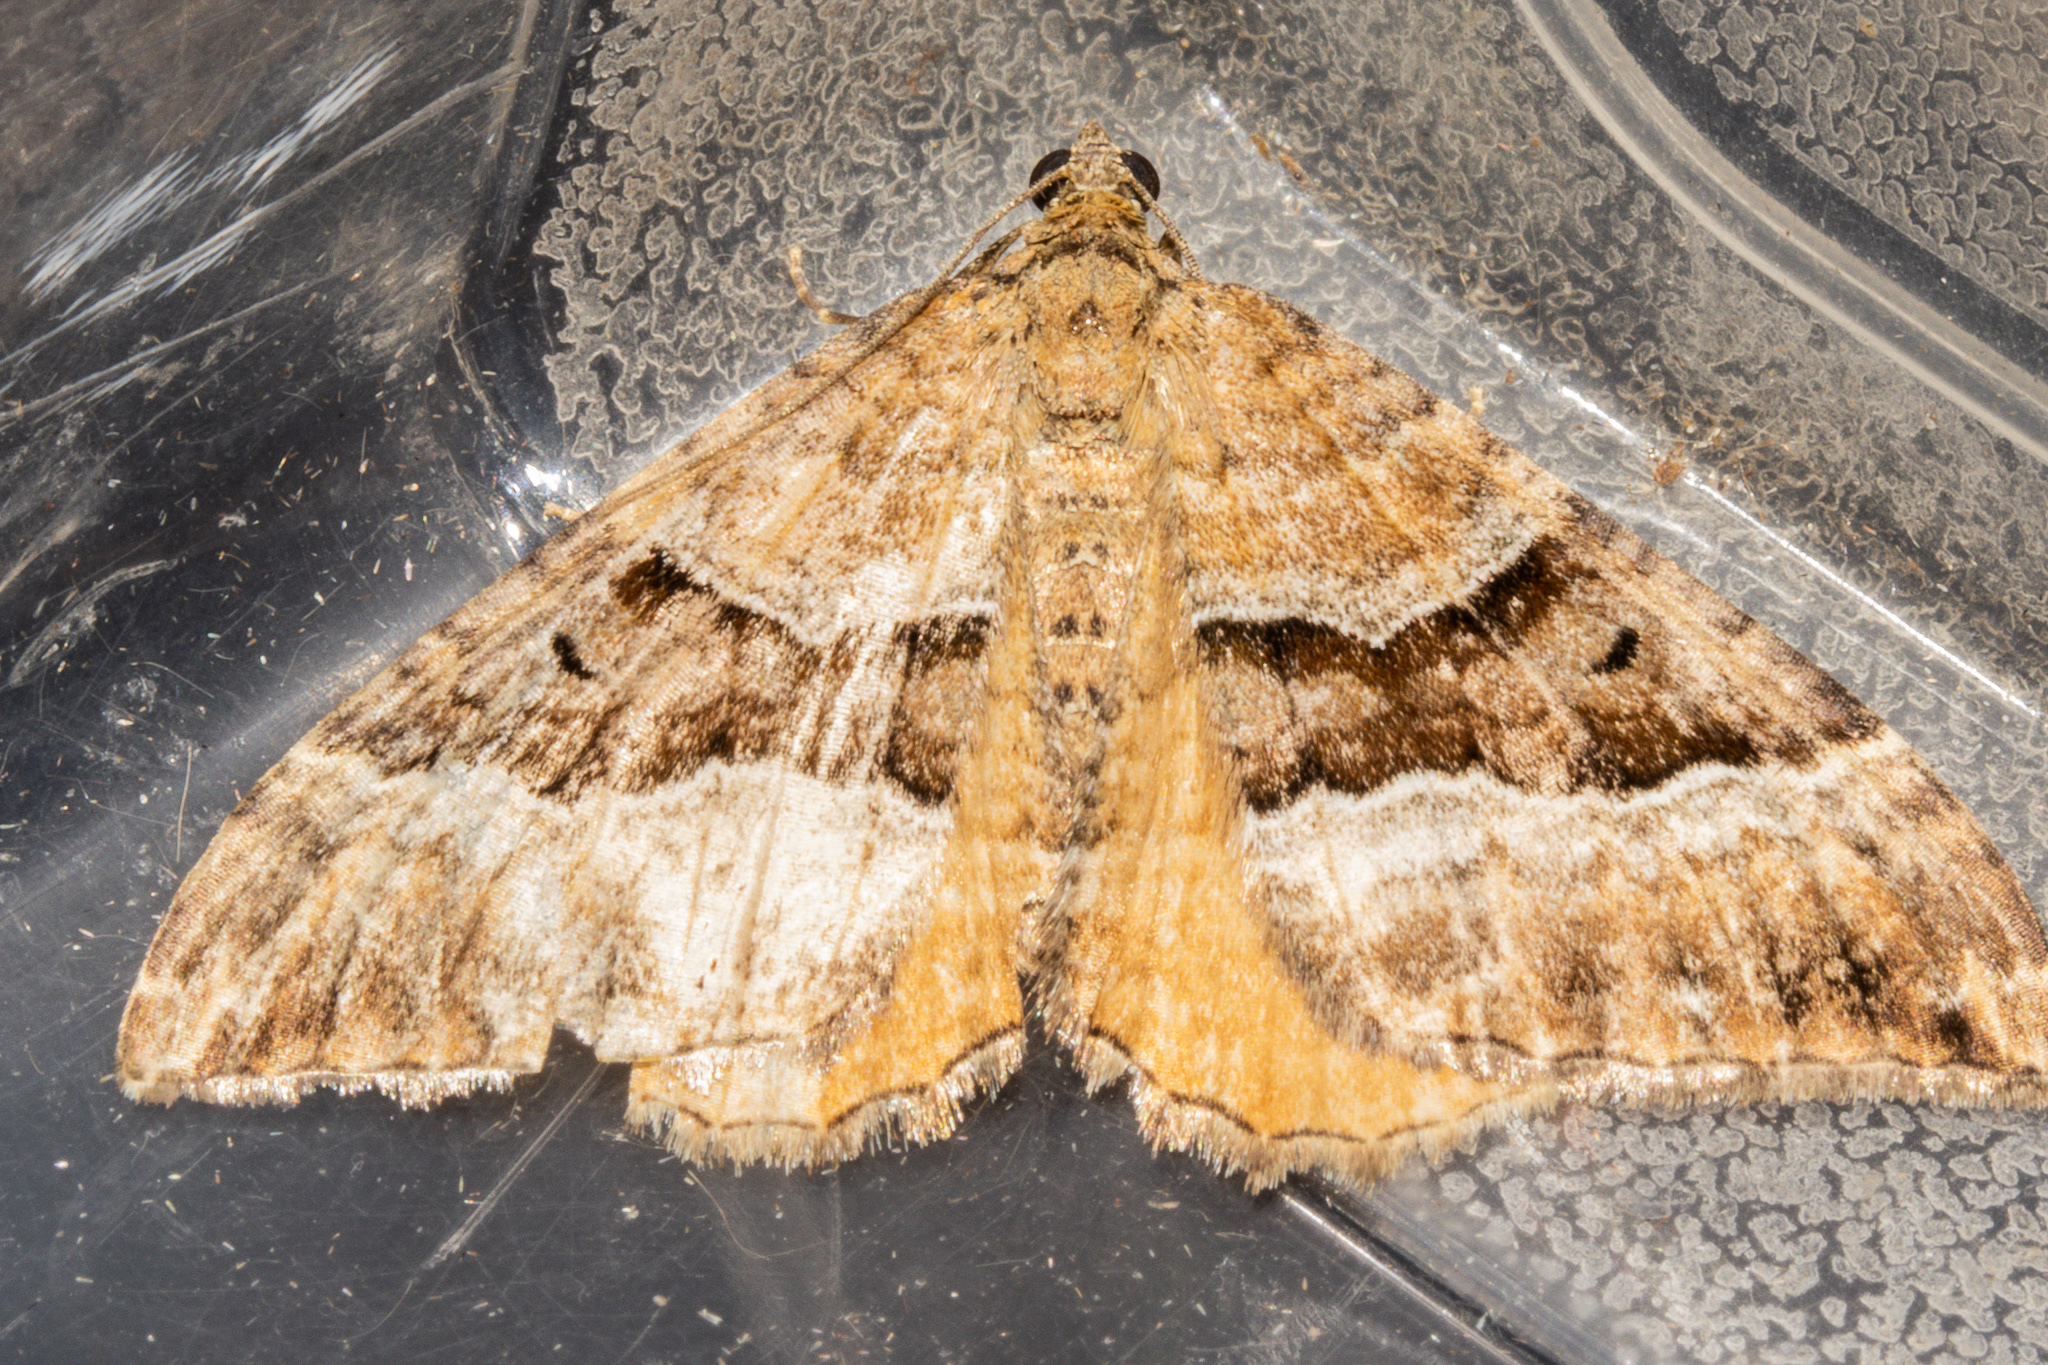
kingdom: Animalia
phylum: Arthropoda
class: Insecta
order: Lepidoptera
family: Geometridae
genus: Hydriomena
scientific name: Hydriomena deltoidata
